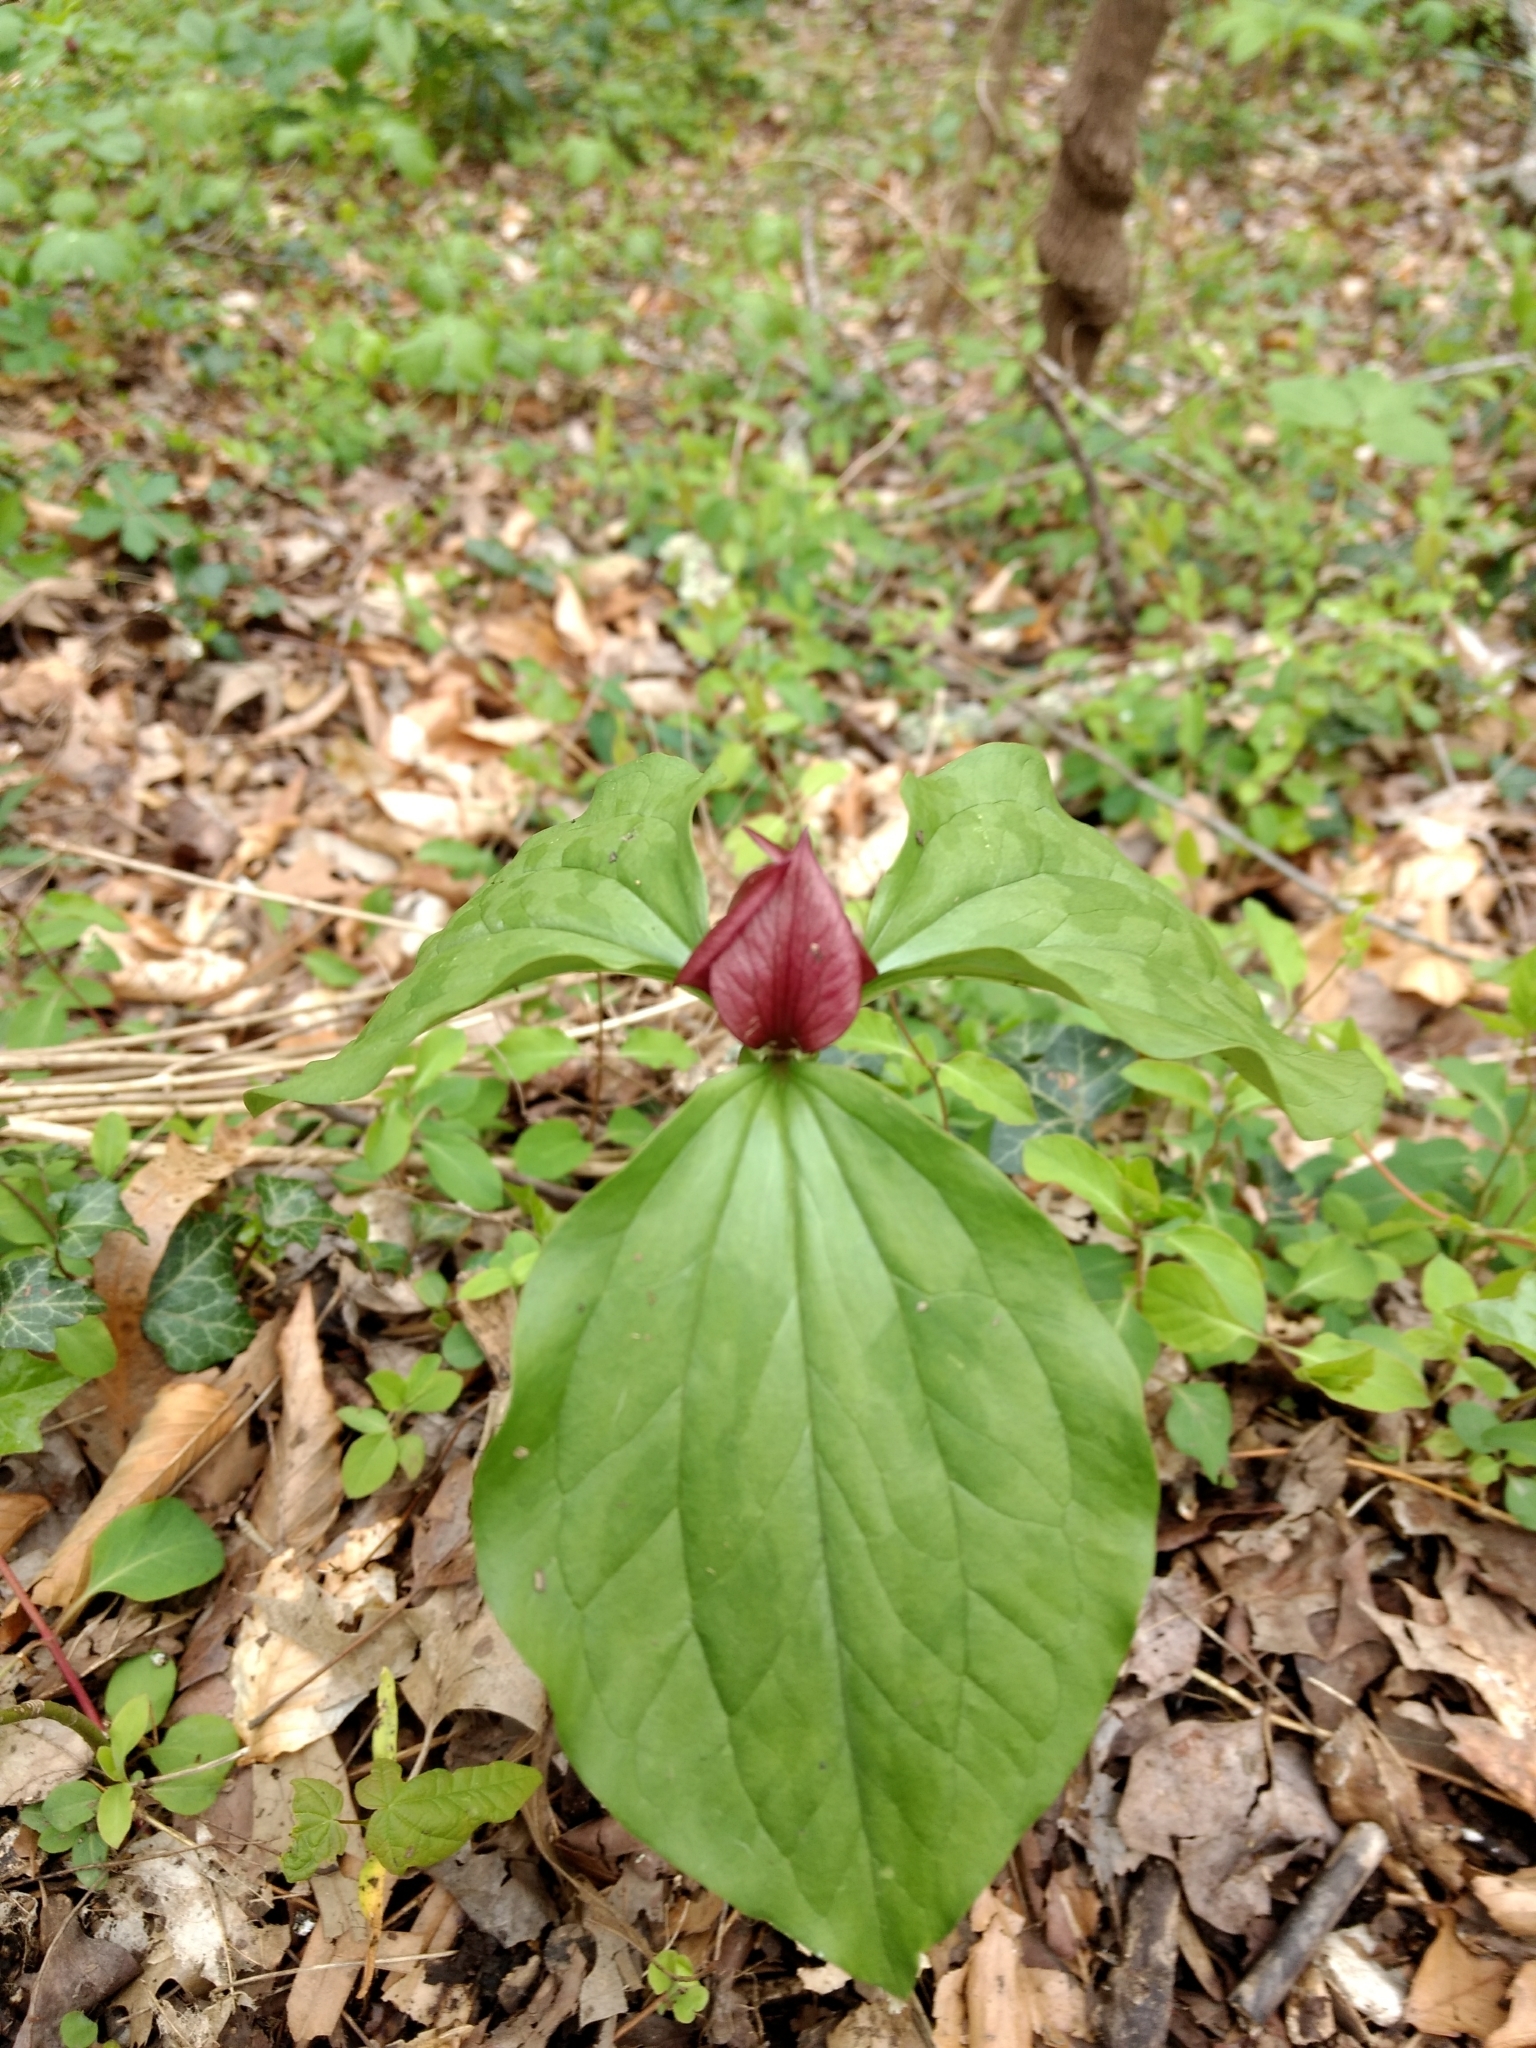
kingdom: Plantae
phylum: Tracheophyta
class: Liliopsida
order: Liliales
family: Melanthiaceae
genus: Trillium
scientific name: Trillium recurvatum
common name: Bloody butcher
